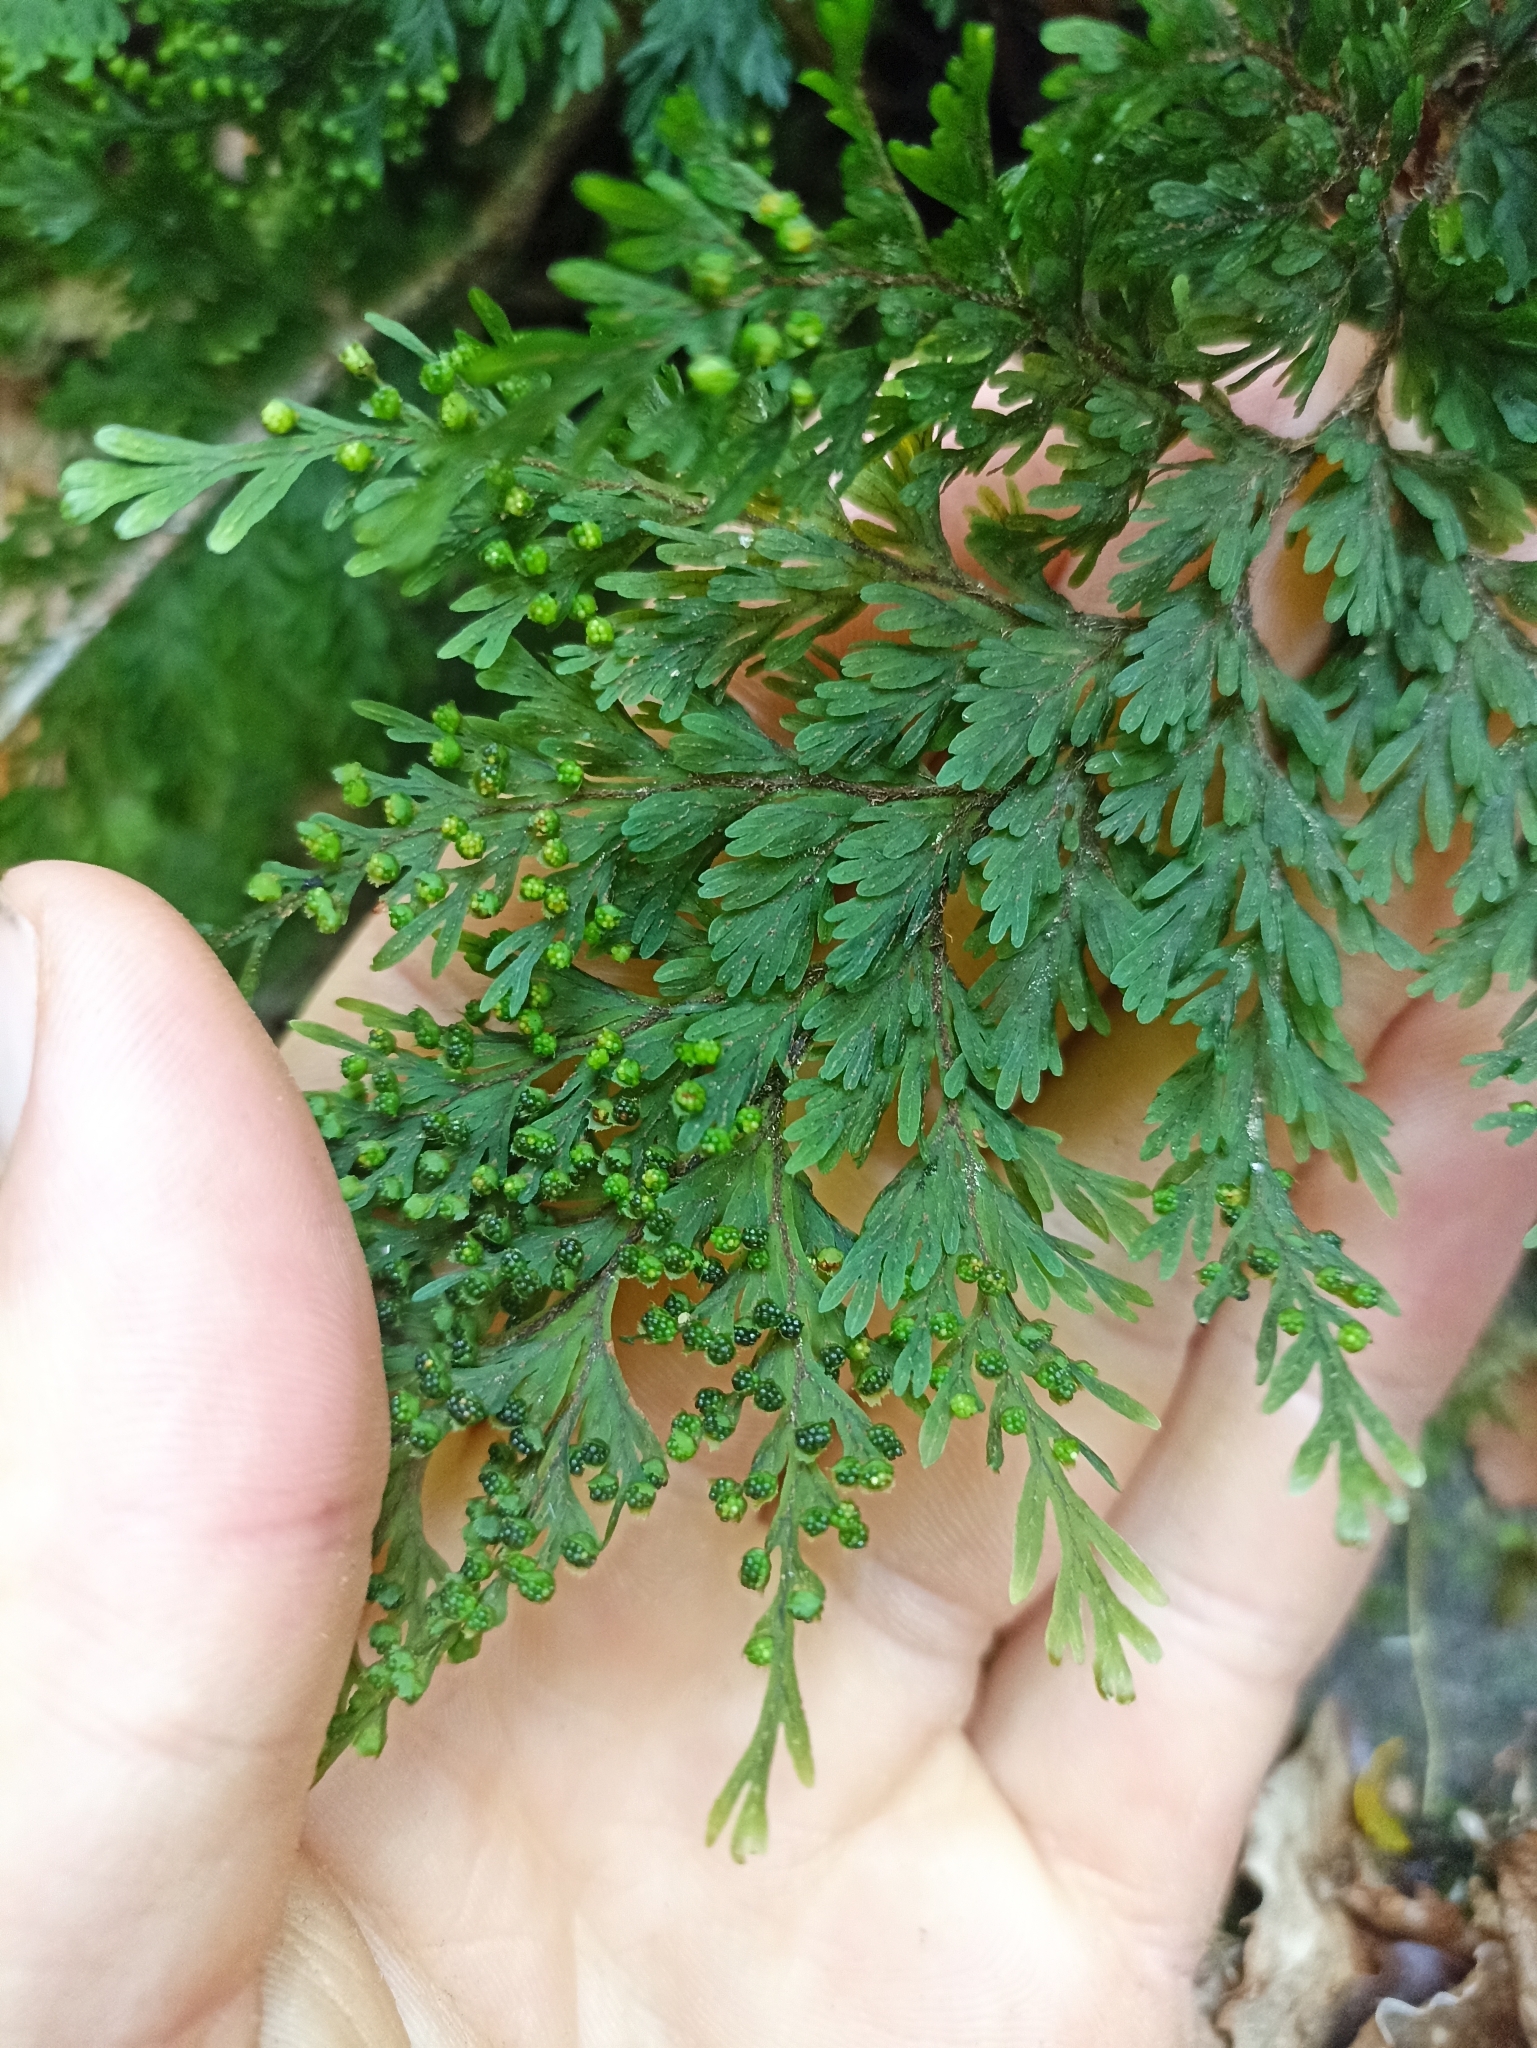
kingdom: Plantae
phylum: Tracheophyta
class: Polypodiopsida
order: Hymenophyllales
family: Hymenophyllaceae
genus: Hymenophyllum
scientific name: Hymenophyllum scabrum
